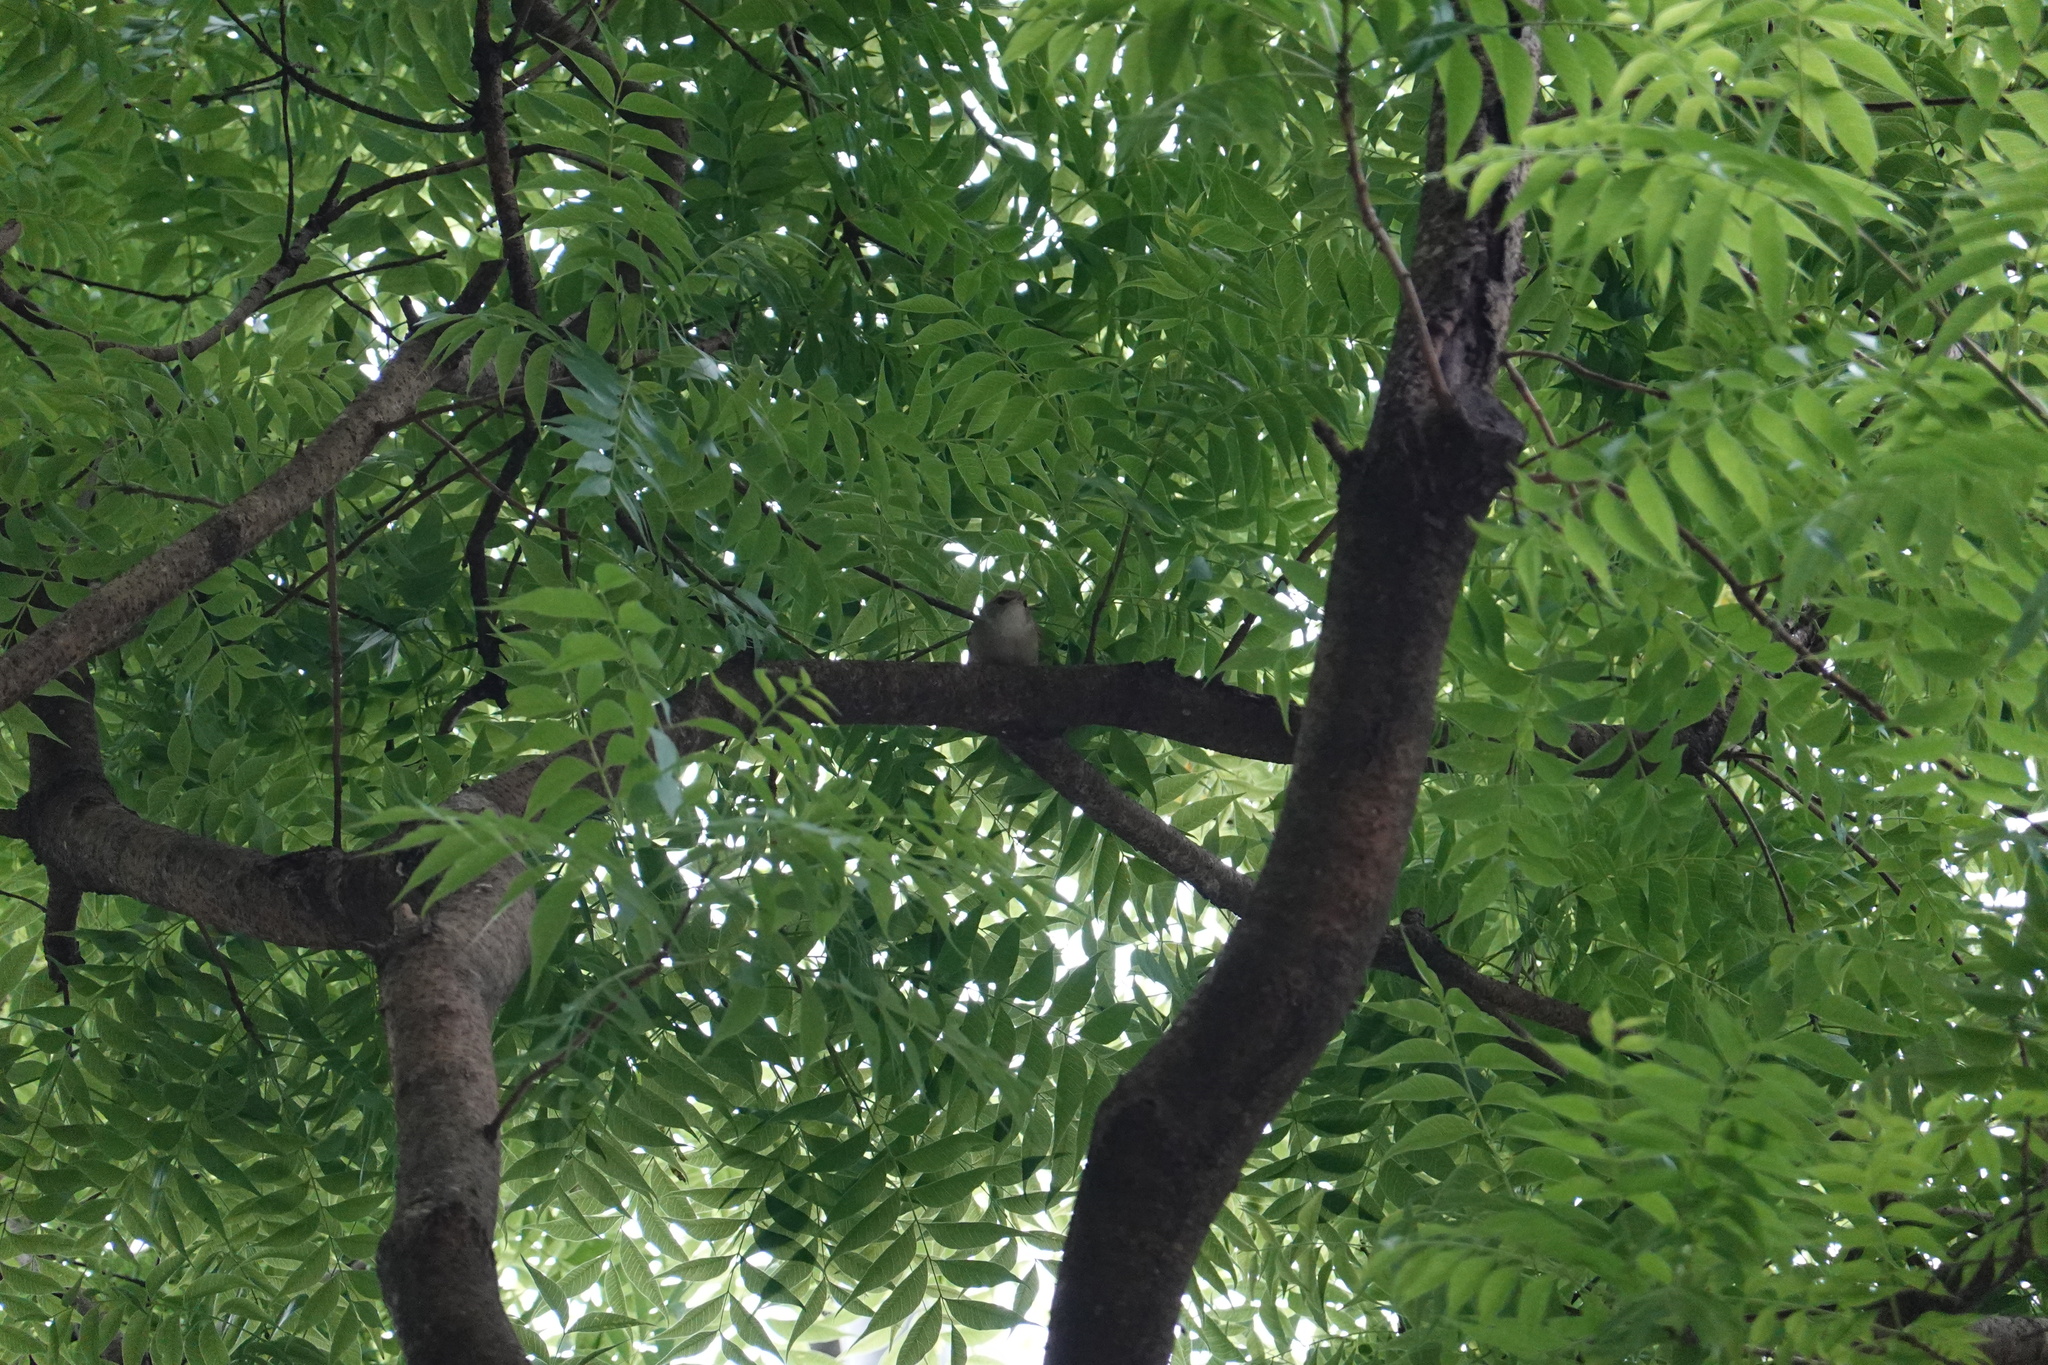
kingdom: Animalia
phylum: Chordata
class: Aves
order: Passeriformes
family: Cettiidae
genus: Horornis
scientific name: Horornis diphone
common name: Japanese bush warbler
